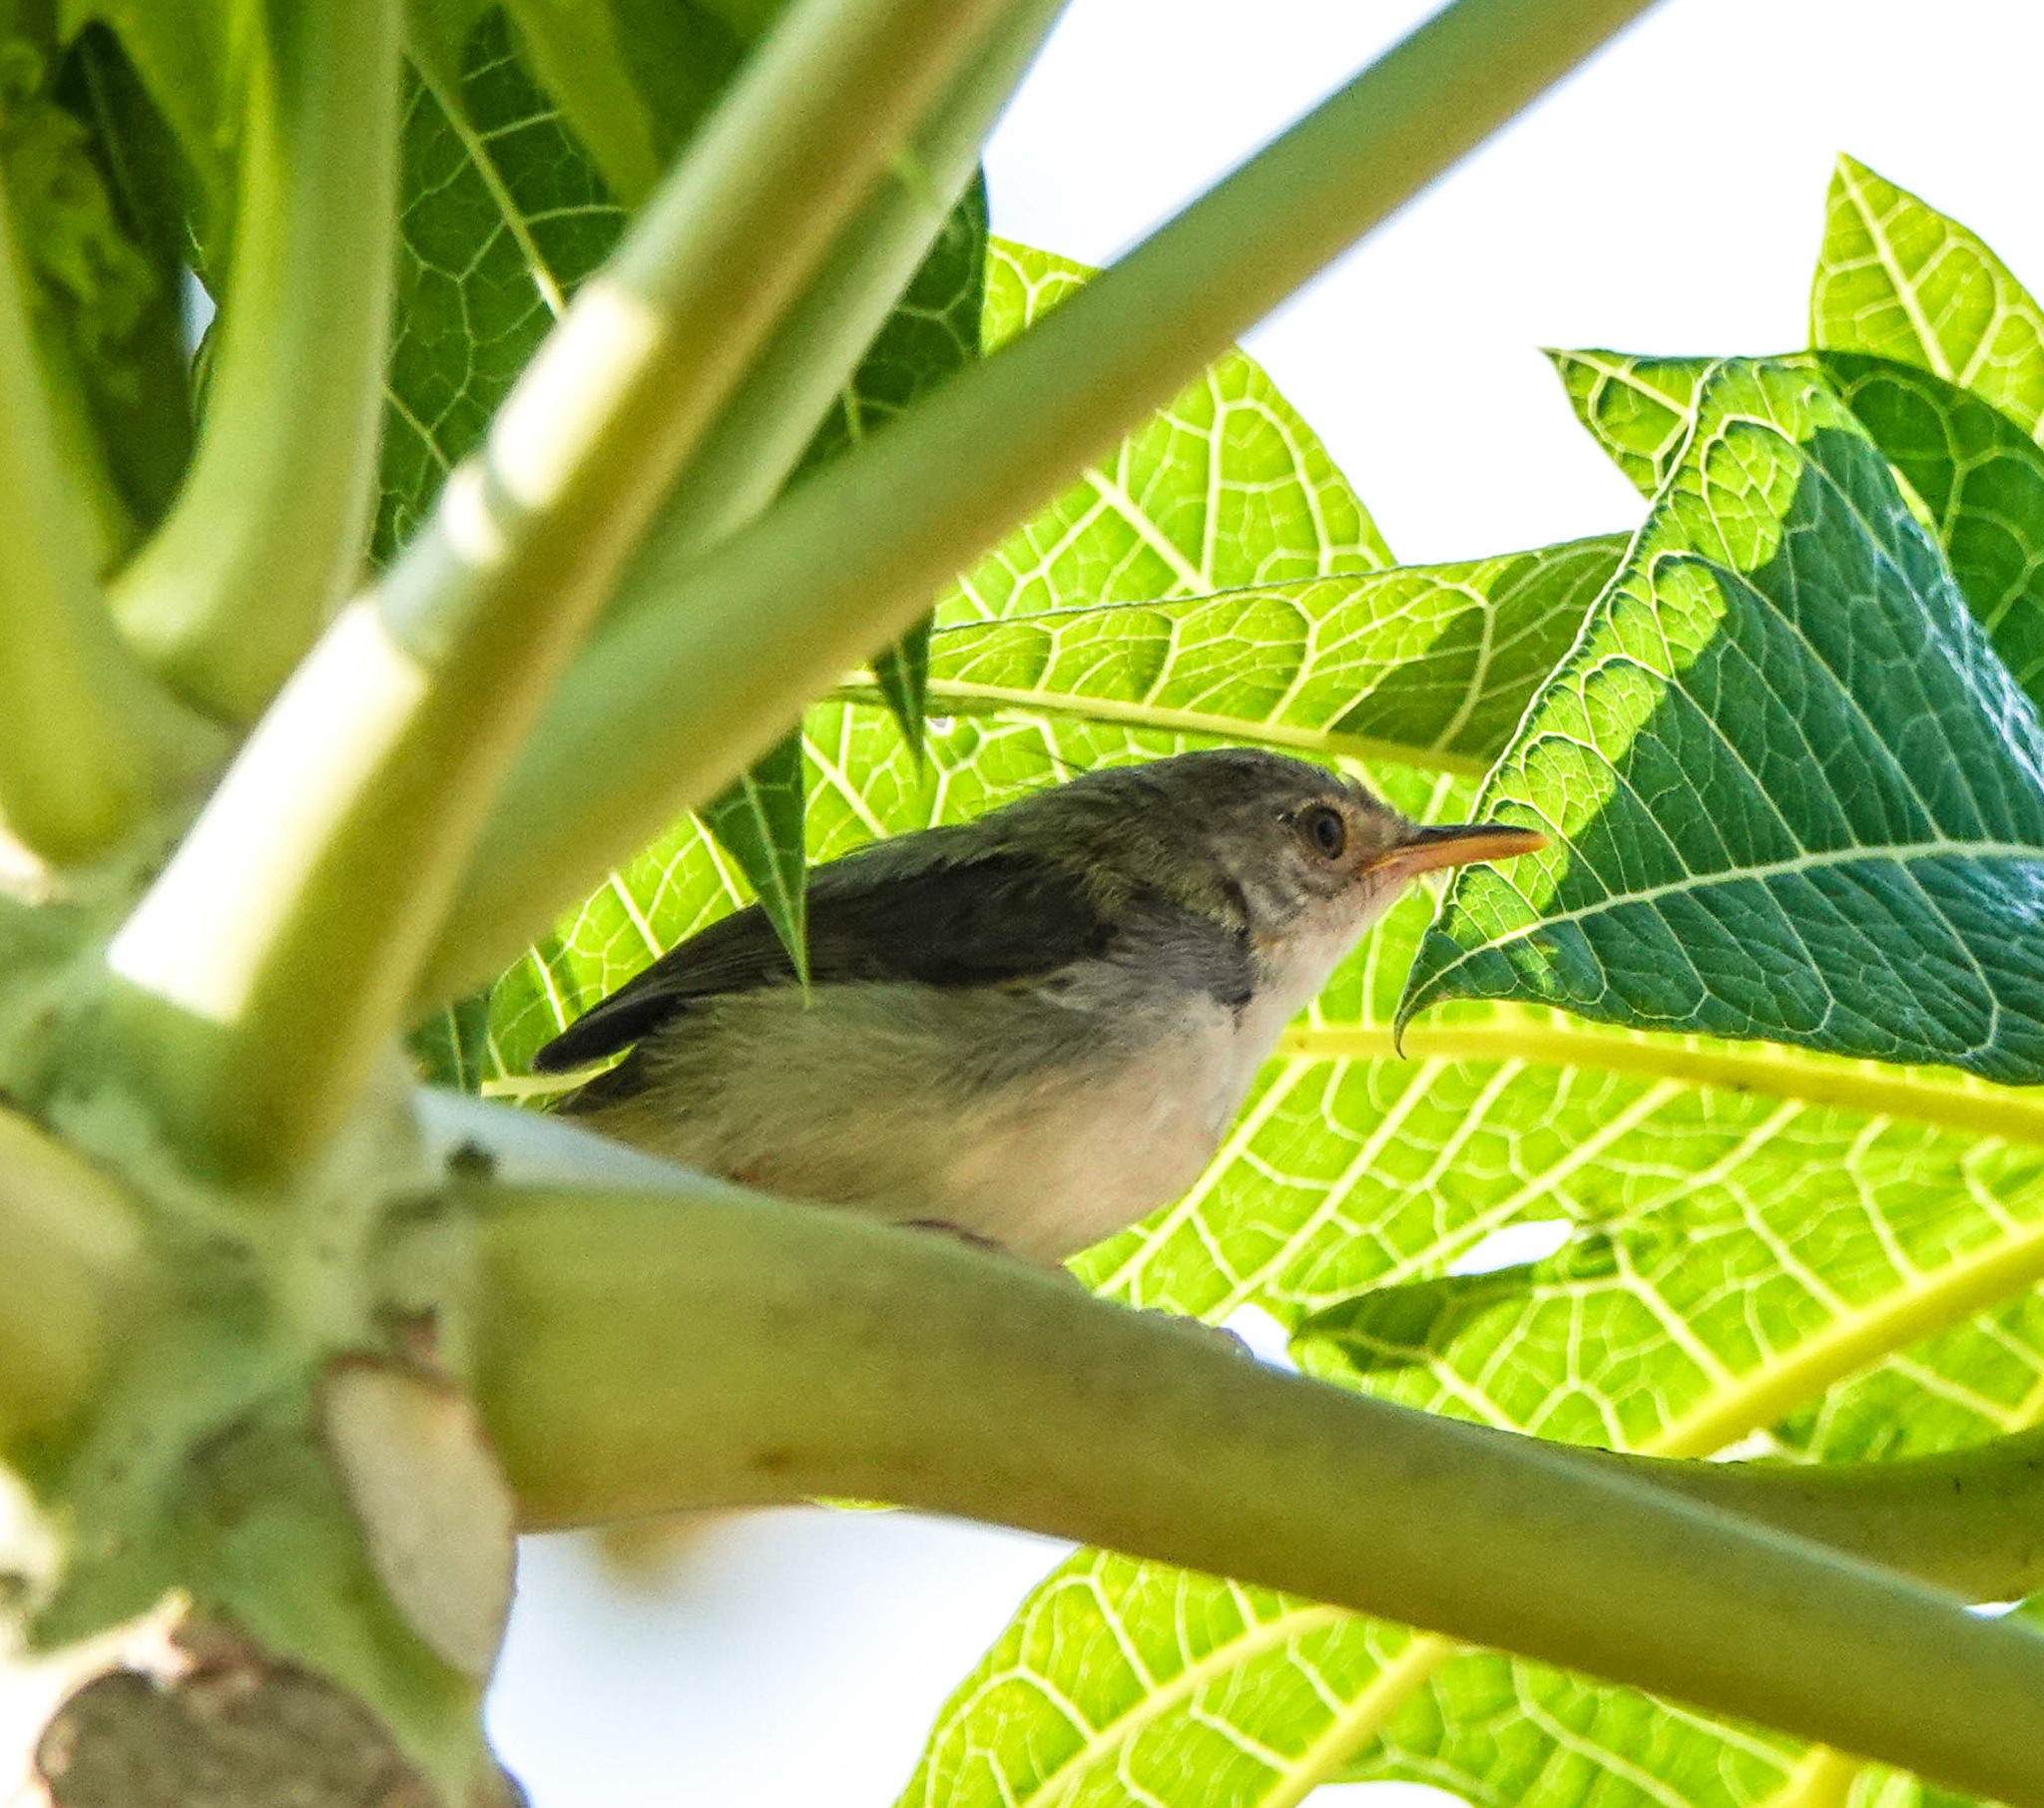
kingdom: Animalia
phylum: Chordata
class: Aves
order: Passeriformes
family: Cisticolidae
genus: Orthotomus
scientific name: Orthotomus sutorius
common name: Common tailorbird
